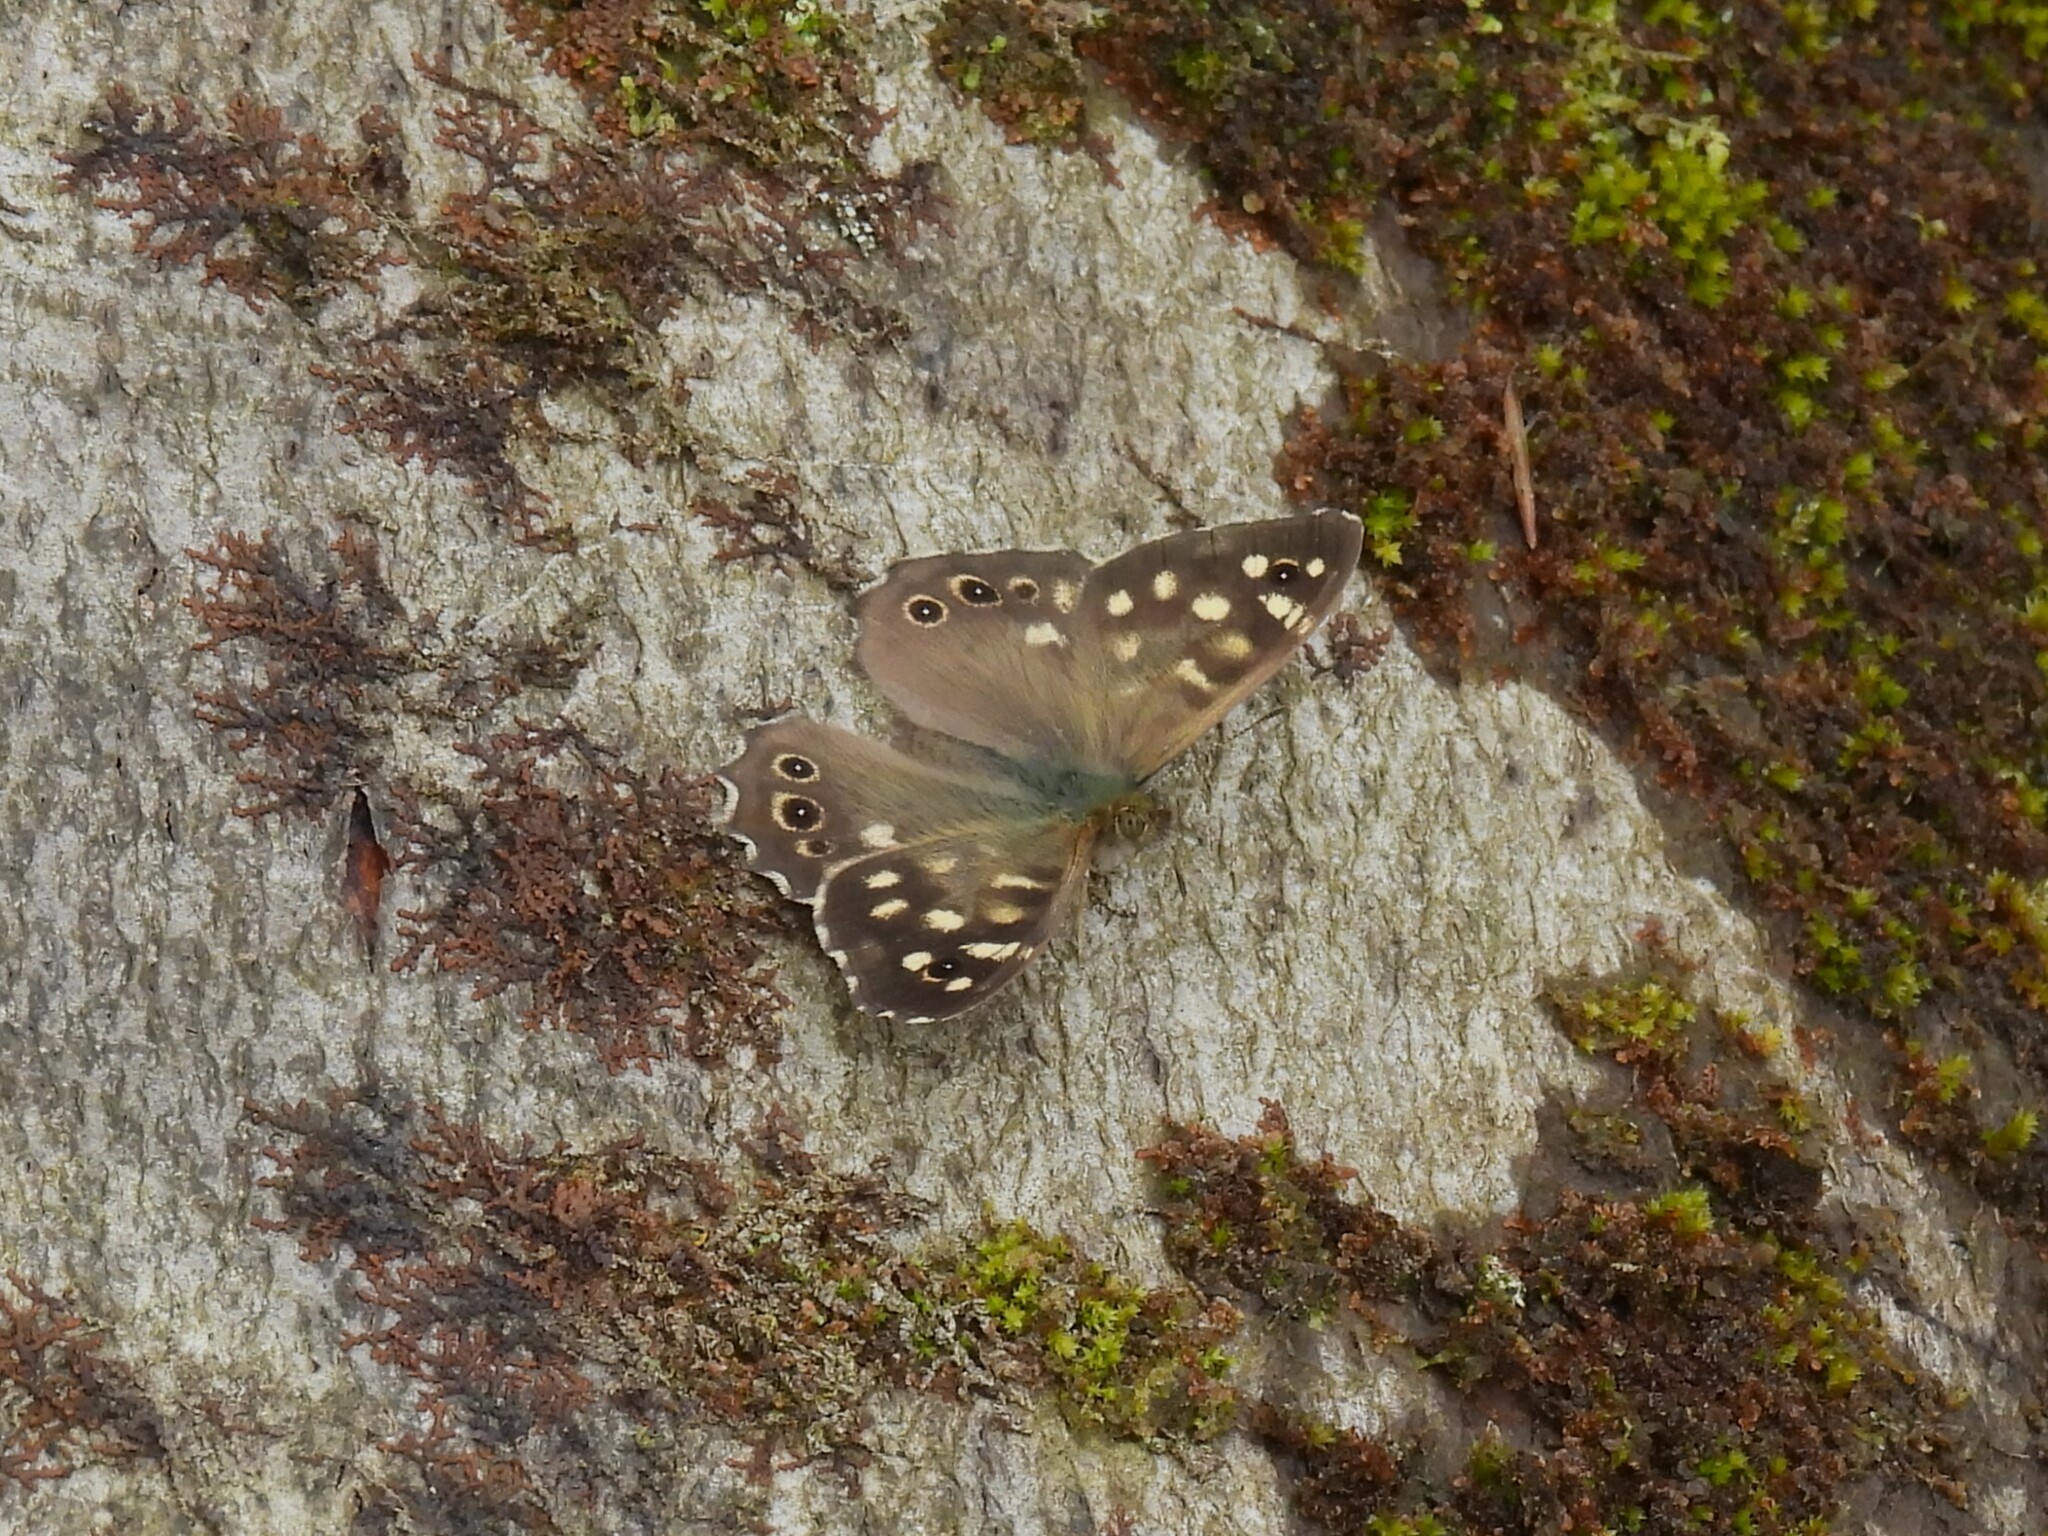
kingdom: Animalia
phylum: Arthropoda
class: Insecta
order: Lepidoptera
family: Nymphalidae
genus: Pararge
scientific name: Pararge aegeria
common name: Speckled wood
